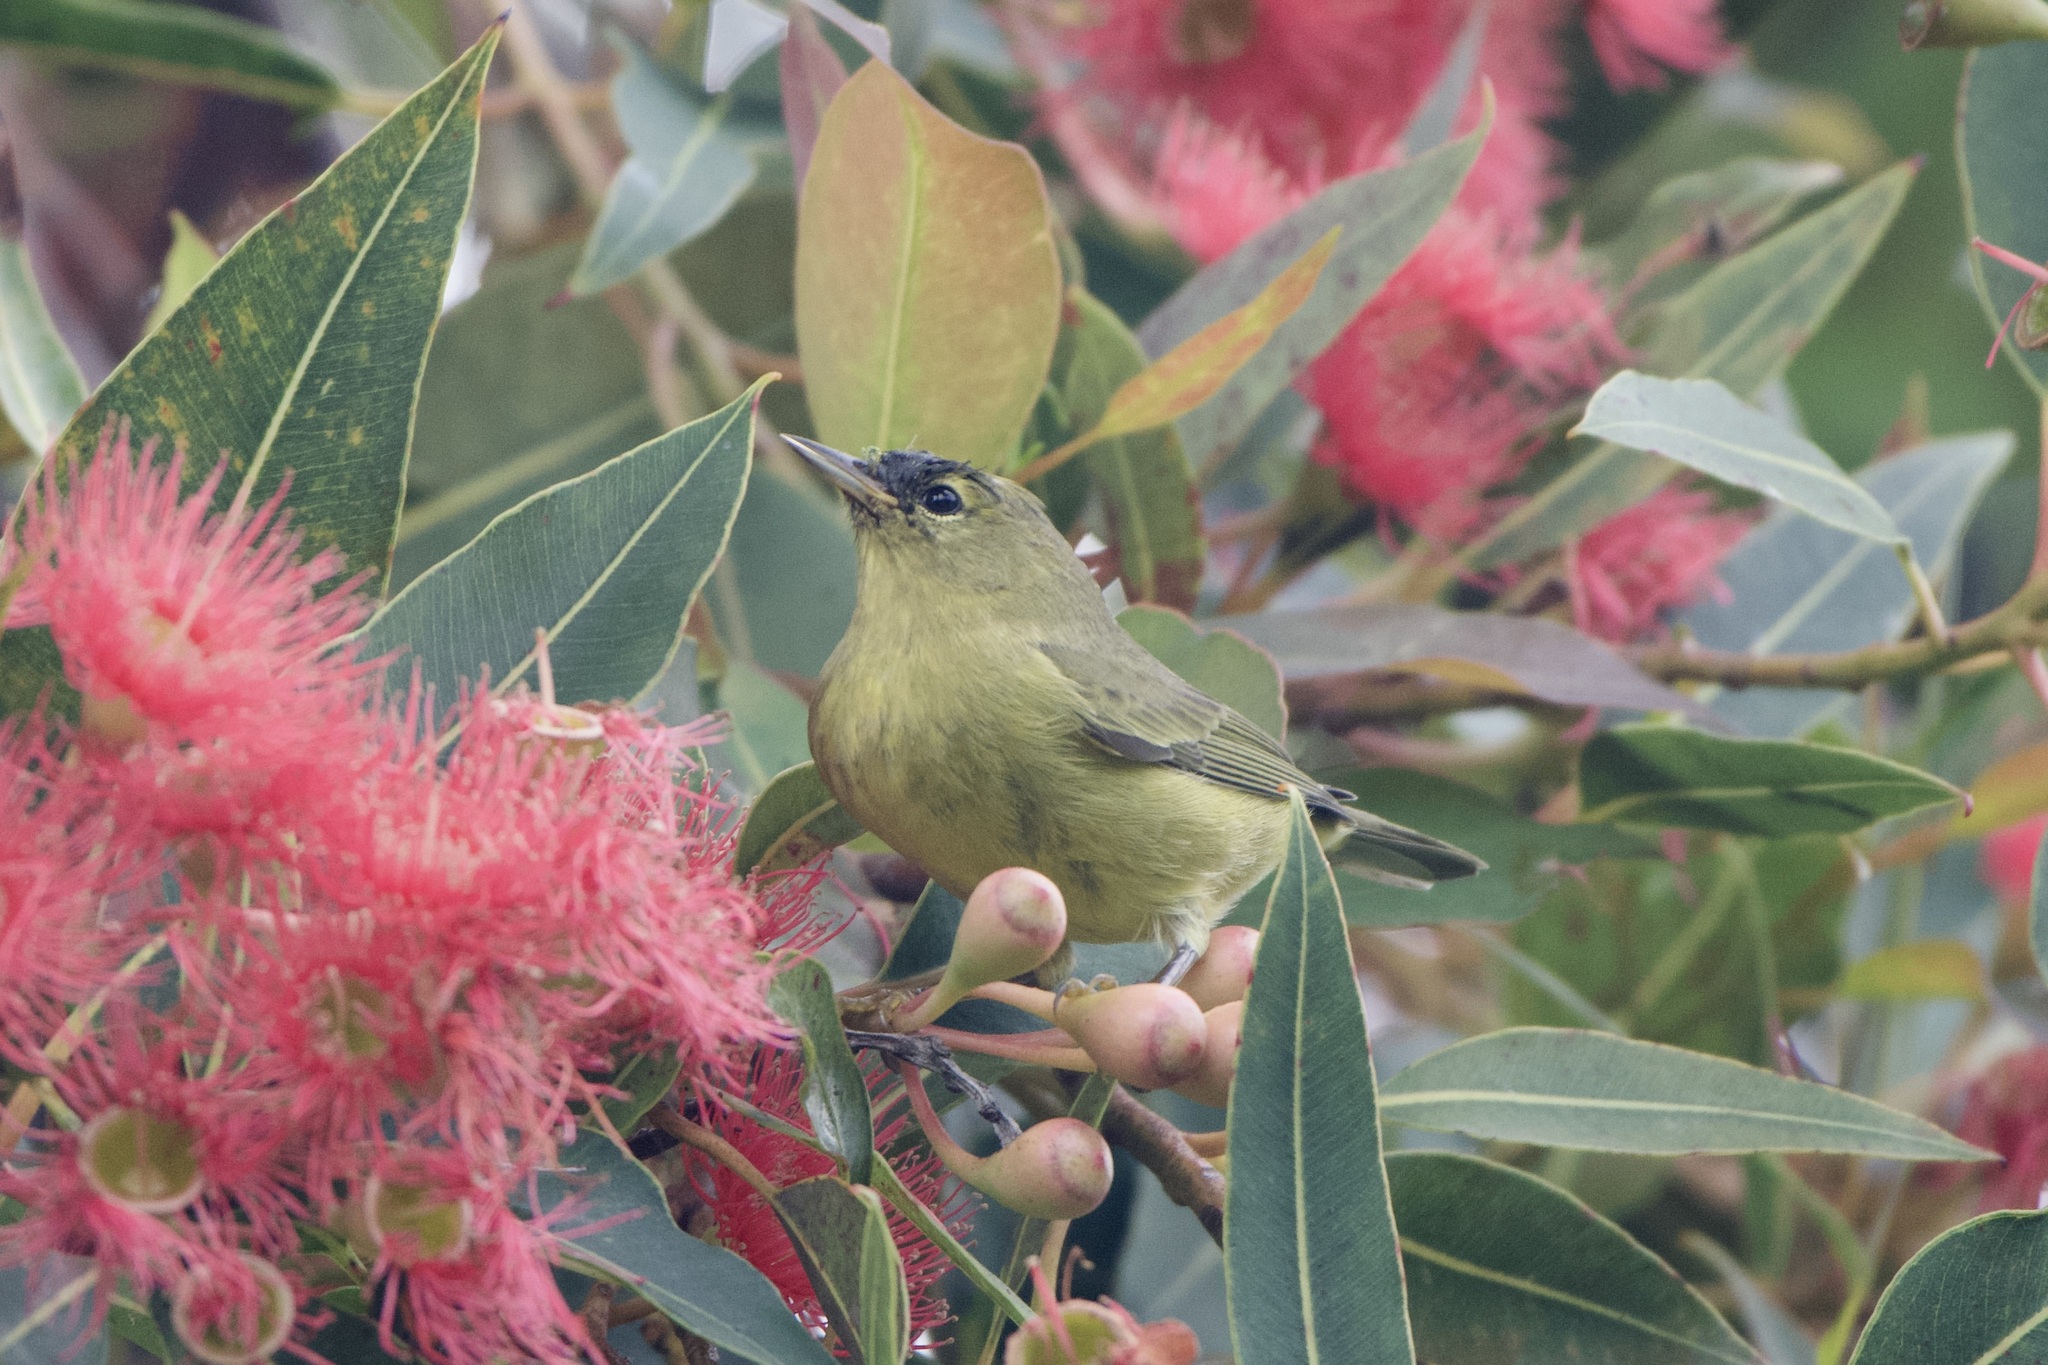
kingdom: Animalia
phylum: Chordata
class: Aves
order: Passeriformes
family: Parulidae
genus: Leiothlypis
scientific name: Leiothlypis celata
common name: Orange-crowned warbler
